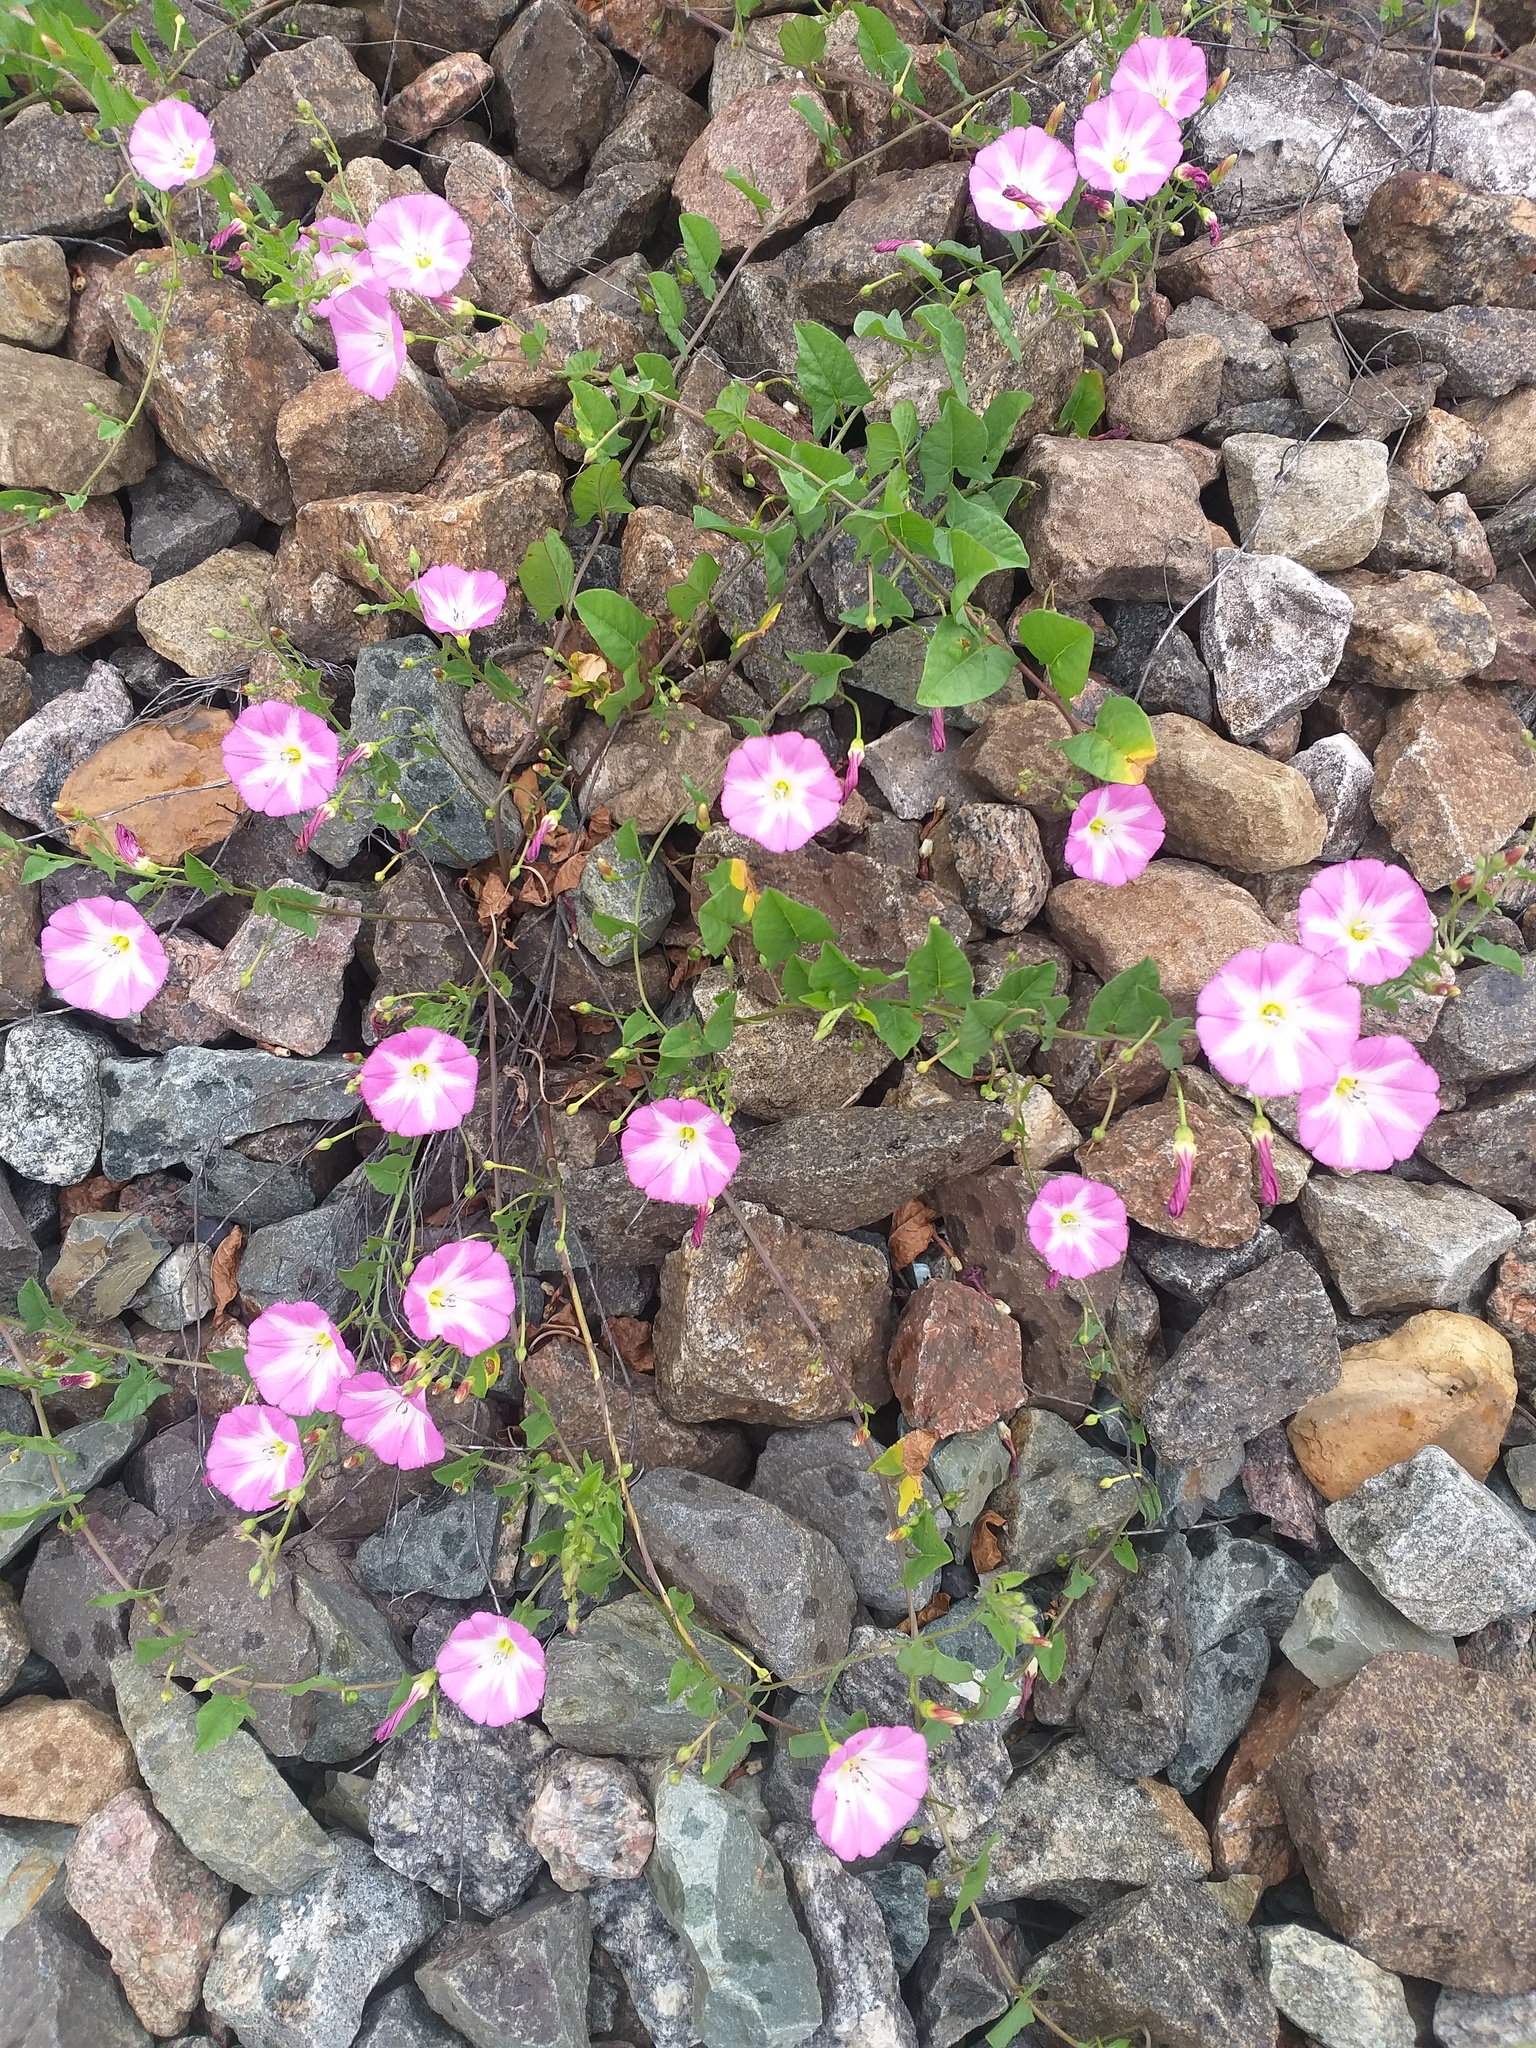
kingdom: Plantae
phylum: Tracheophyta
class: Magnoliopsida
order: Solanales
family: Convolvulaceae
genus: Convolvulus
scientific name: Convolvulus arvensis
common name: Field bindweed
